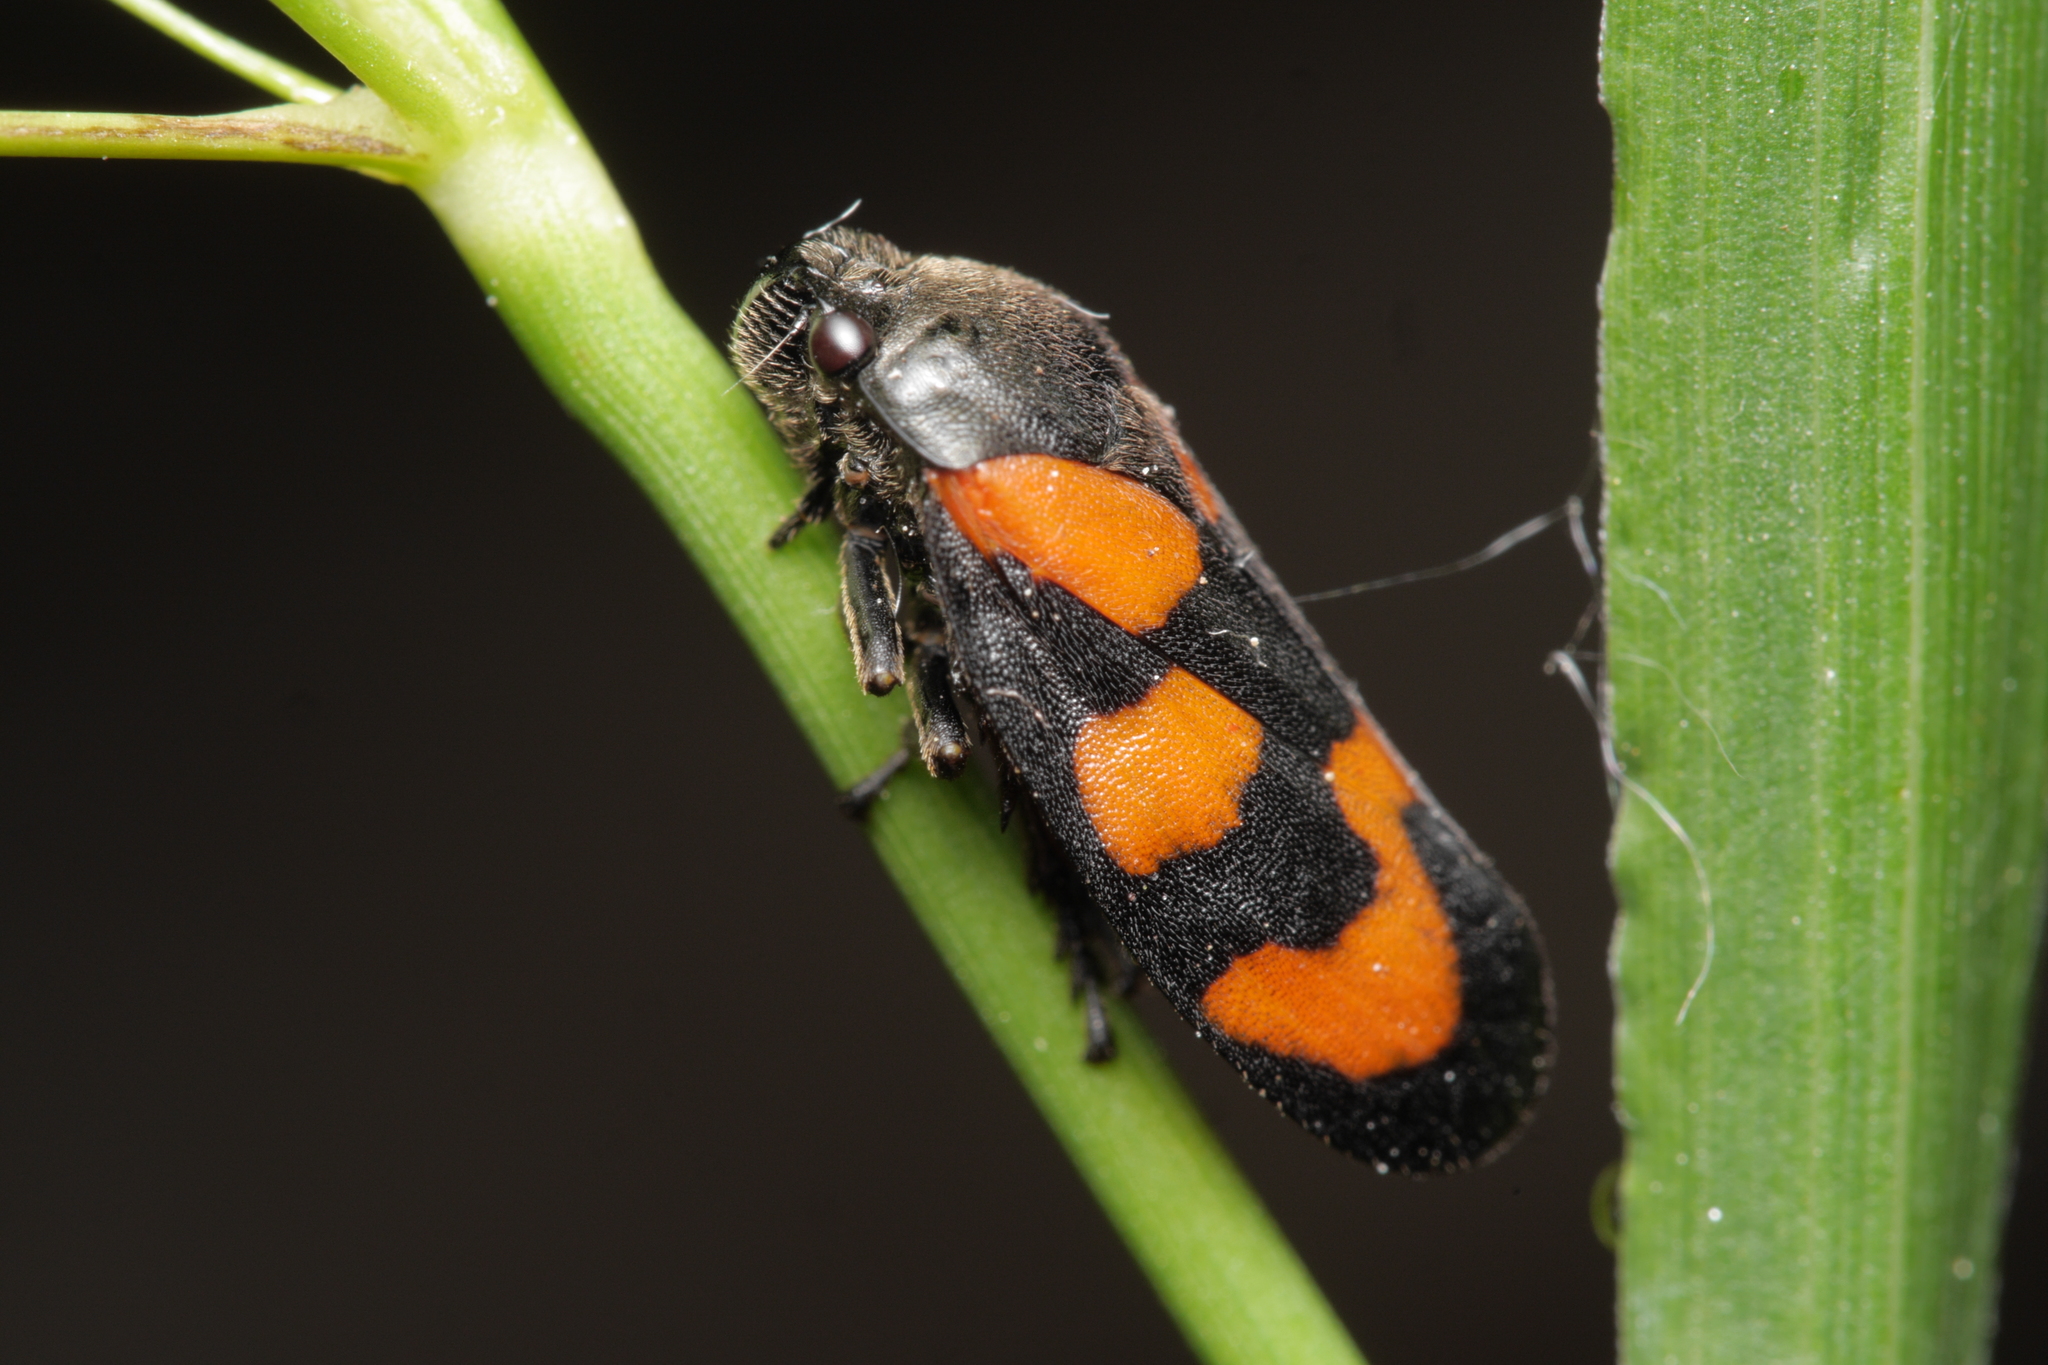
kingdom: Animalia
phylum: Arthropoda
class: Insecta
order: Hemiptera
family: Cercopidae
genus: Cercopis
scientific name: Cercopis vulnerata
